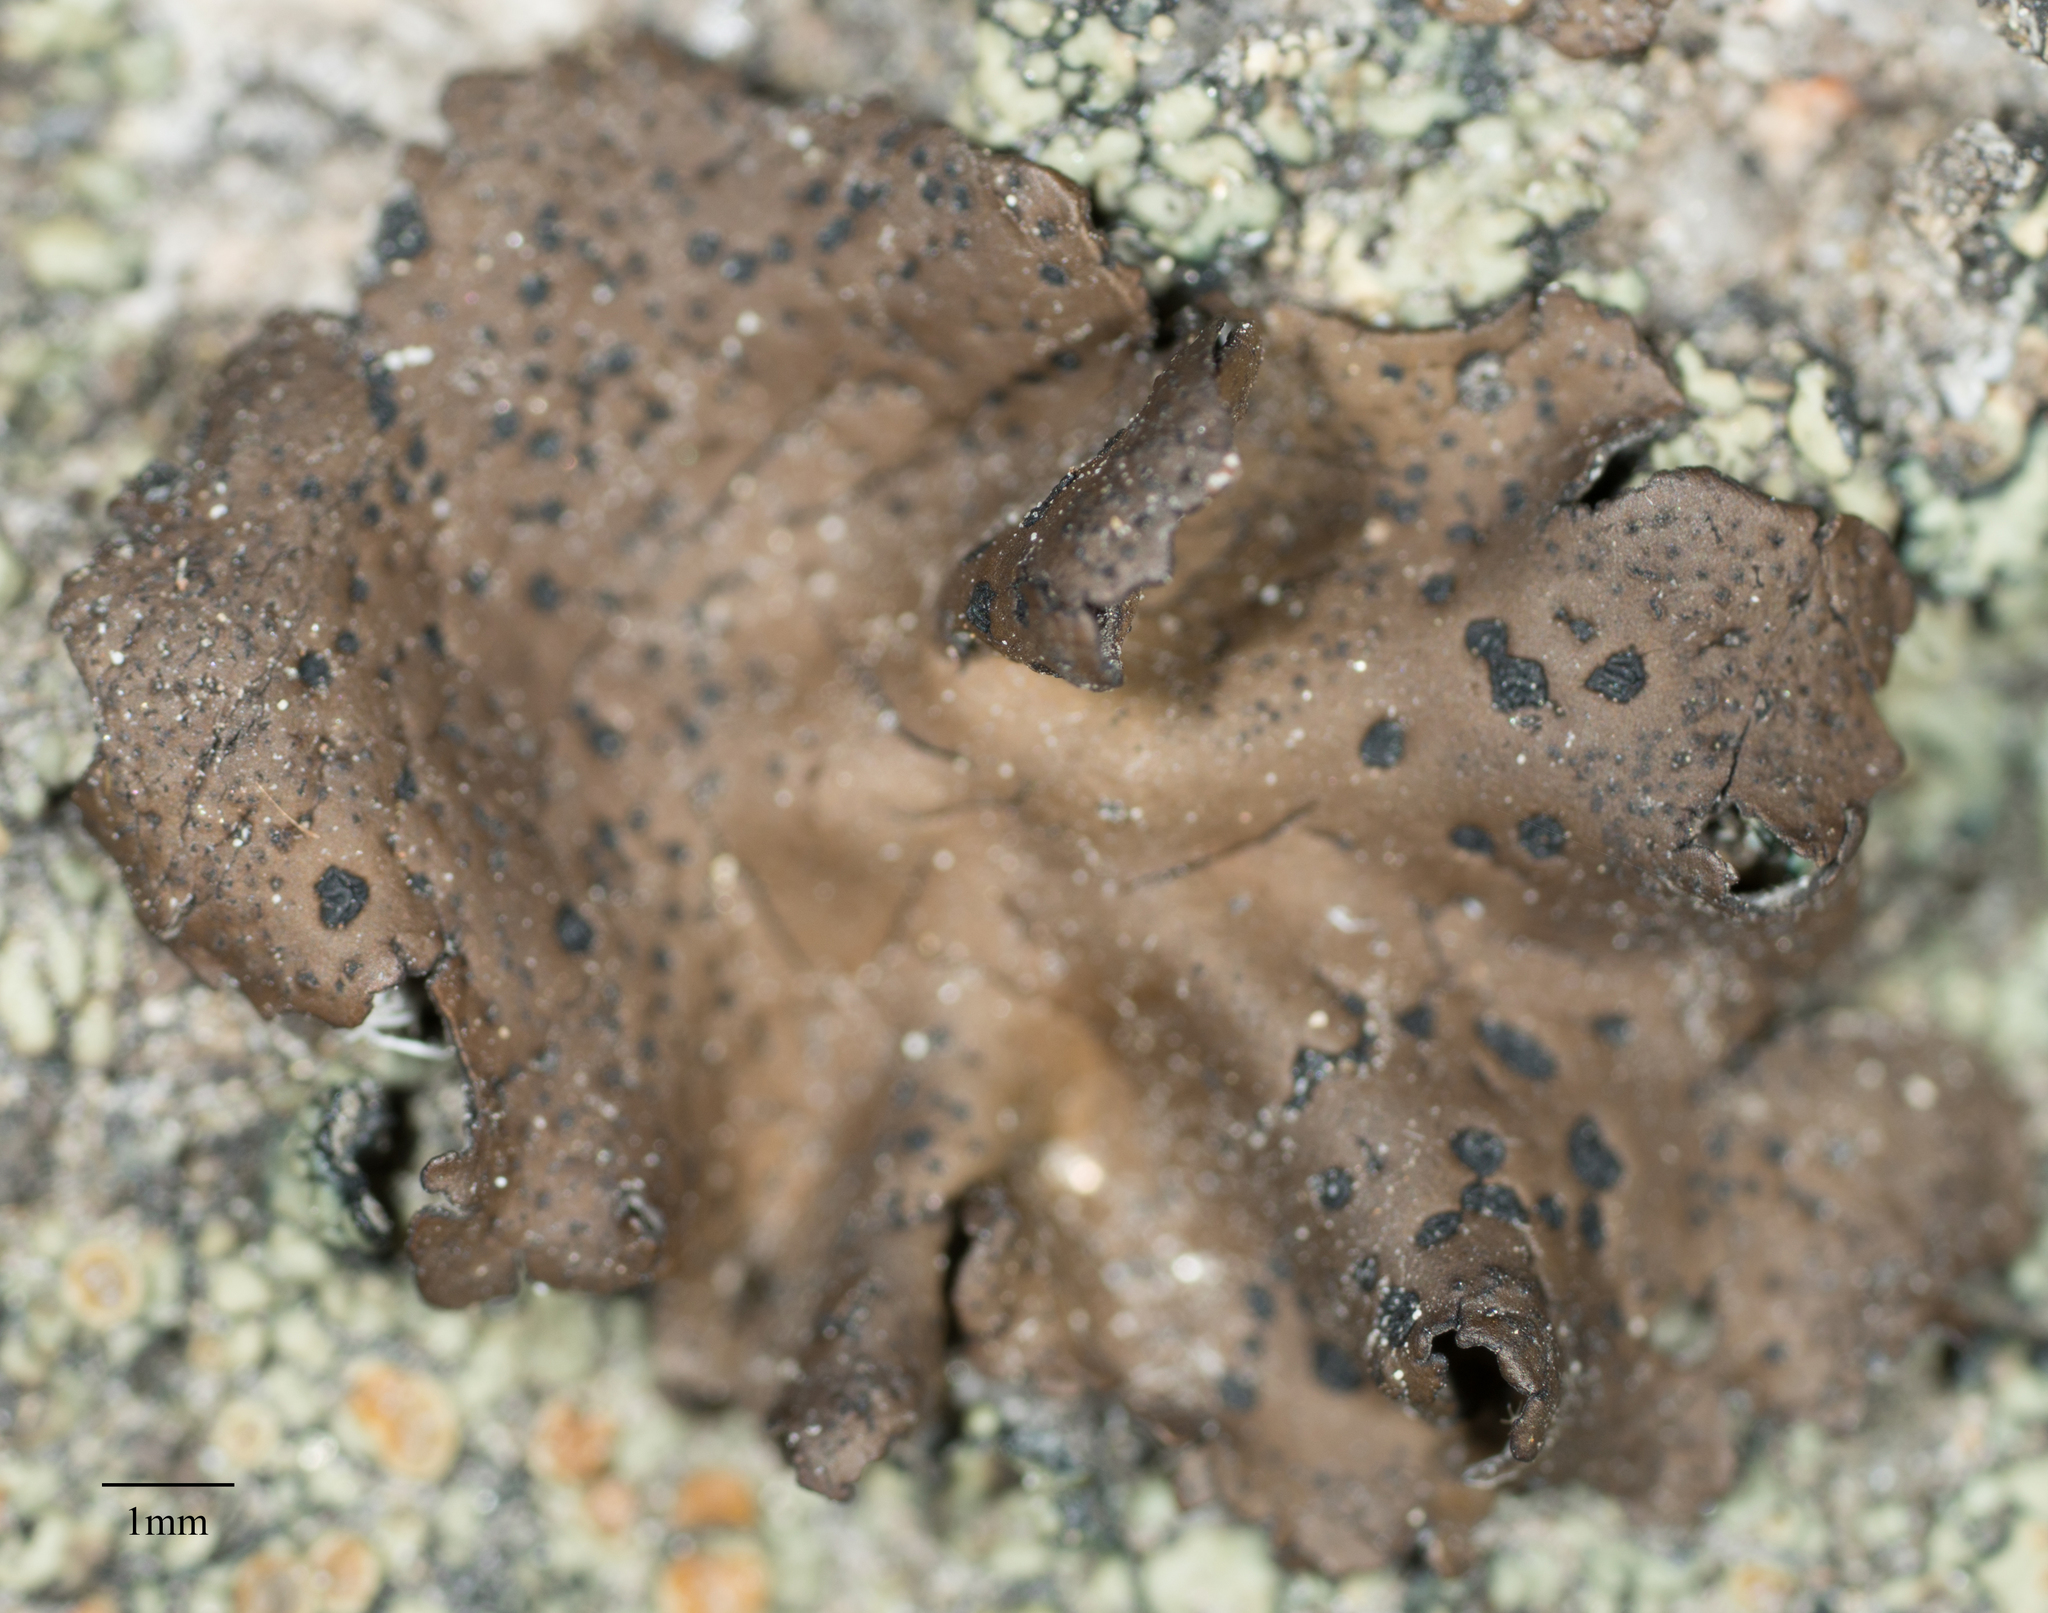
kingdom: Fungi
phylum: Ascomycota
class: Lecanoromycetes
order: Umbilicariales
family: Umbilicariaceae
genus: Umbilicaria
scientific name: Umbilicaria phaea
